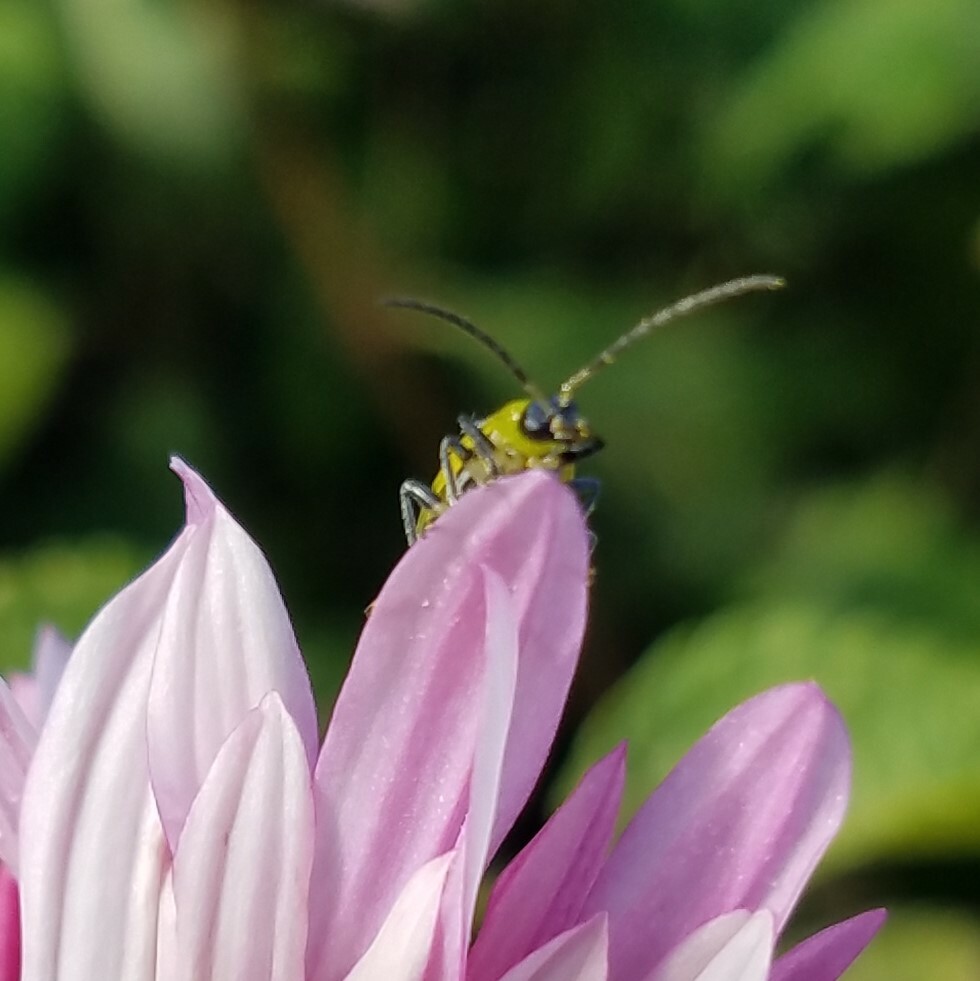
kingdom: Animalia
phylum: Arthropoda
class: Insecta
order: Coleoptera
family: Chrysomelidae
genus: Diabrotica
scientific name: Diabrotica undecimpunctata
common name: Spotted cucumber beetle
